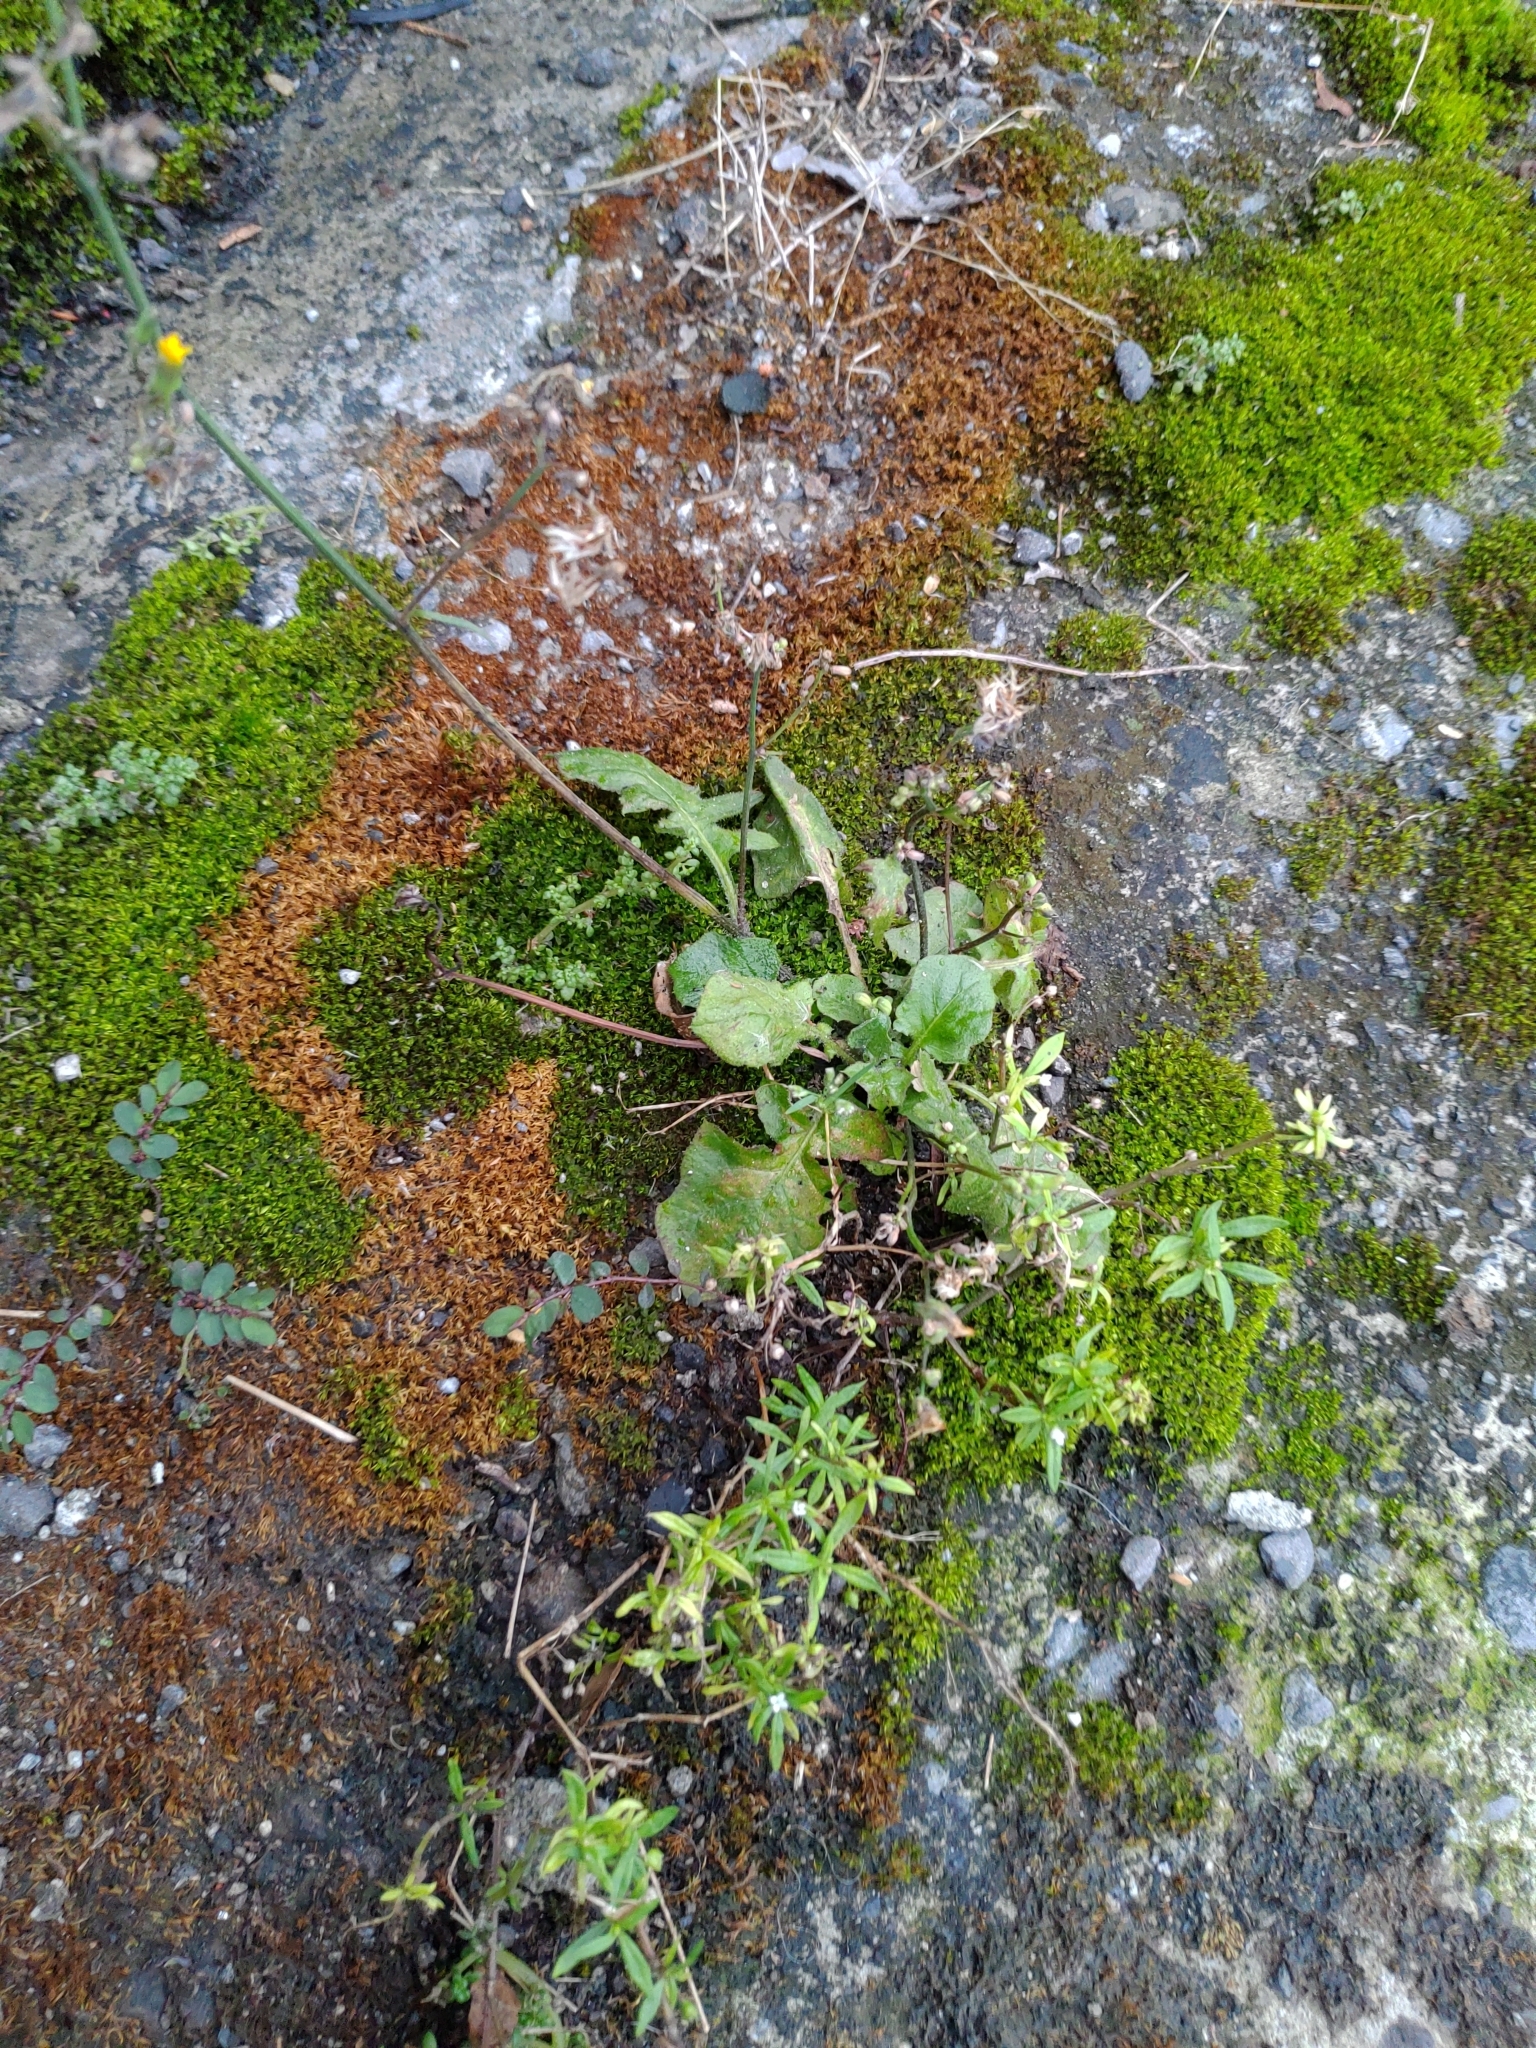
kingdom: Plantae
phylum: Tracheophyta
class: Magnoliopsida
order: Asterales
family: Asteraceae
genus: Youngia
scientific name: Youngia japonica
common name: Oriental false hawksbeard
